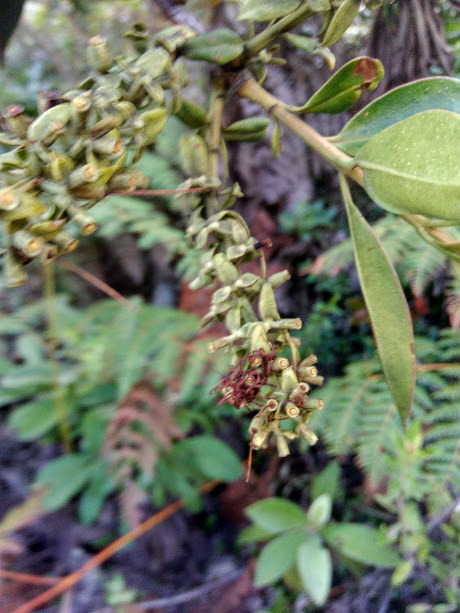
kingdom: Plantae
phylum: Tracheophyta
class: Magnoliopsida
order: Santalales
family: Loranthaceae
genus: Gaiadendron
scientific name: Gaiadendron punctatum
